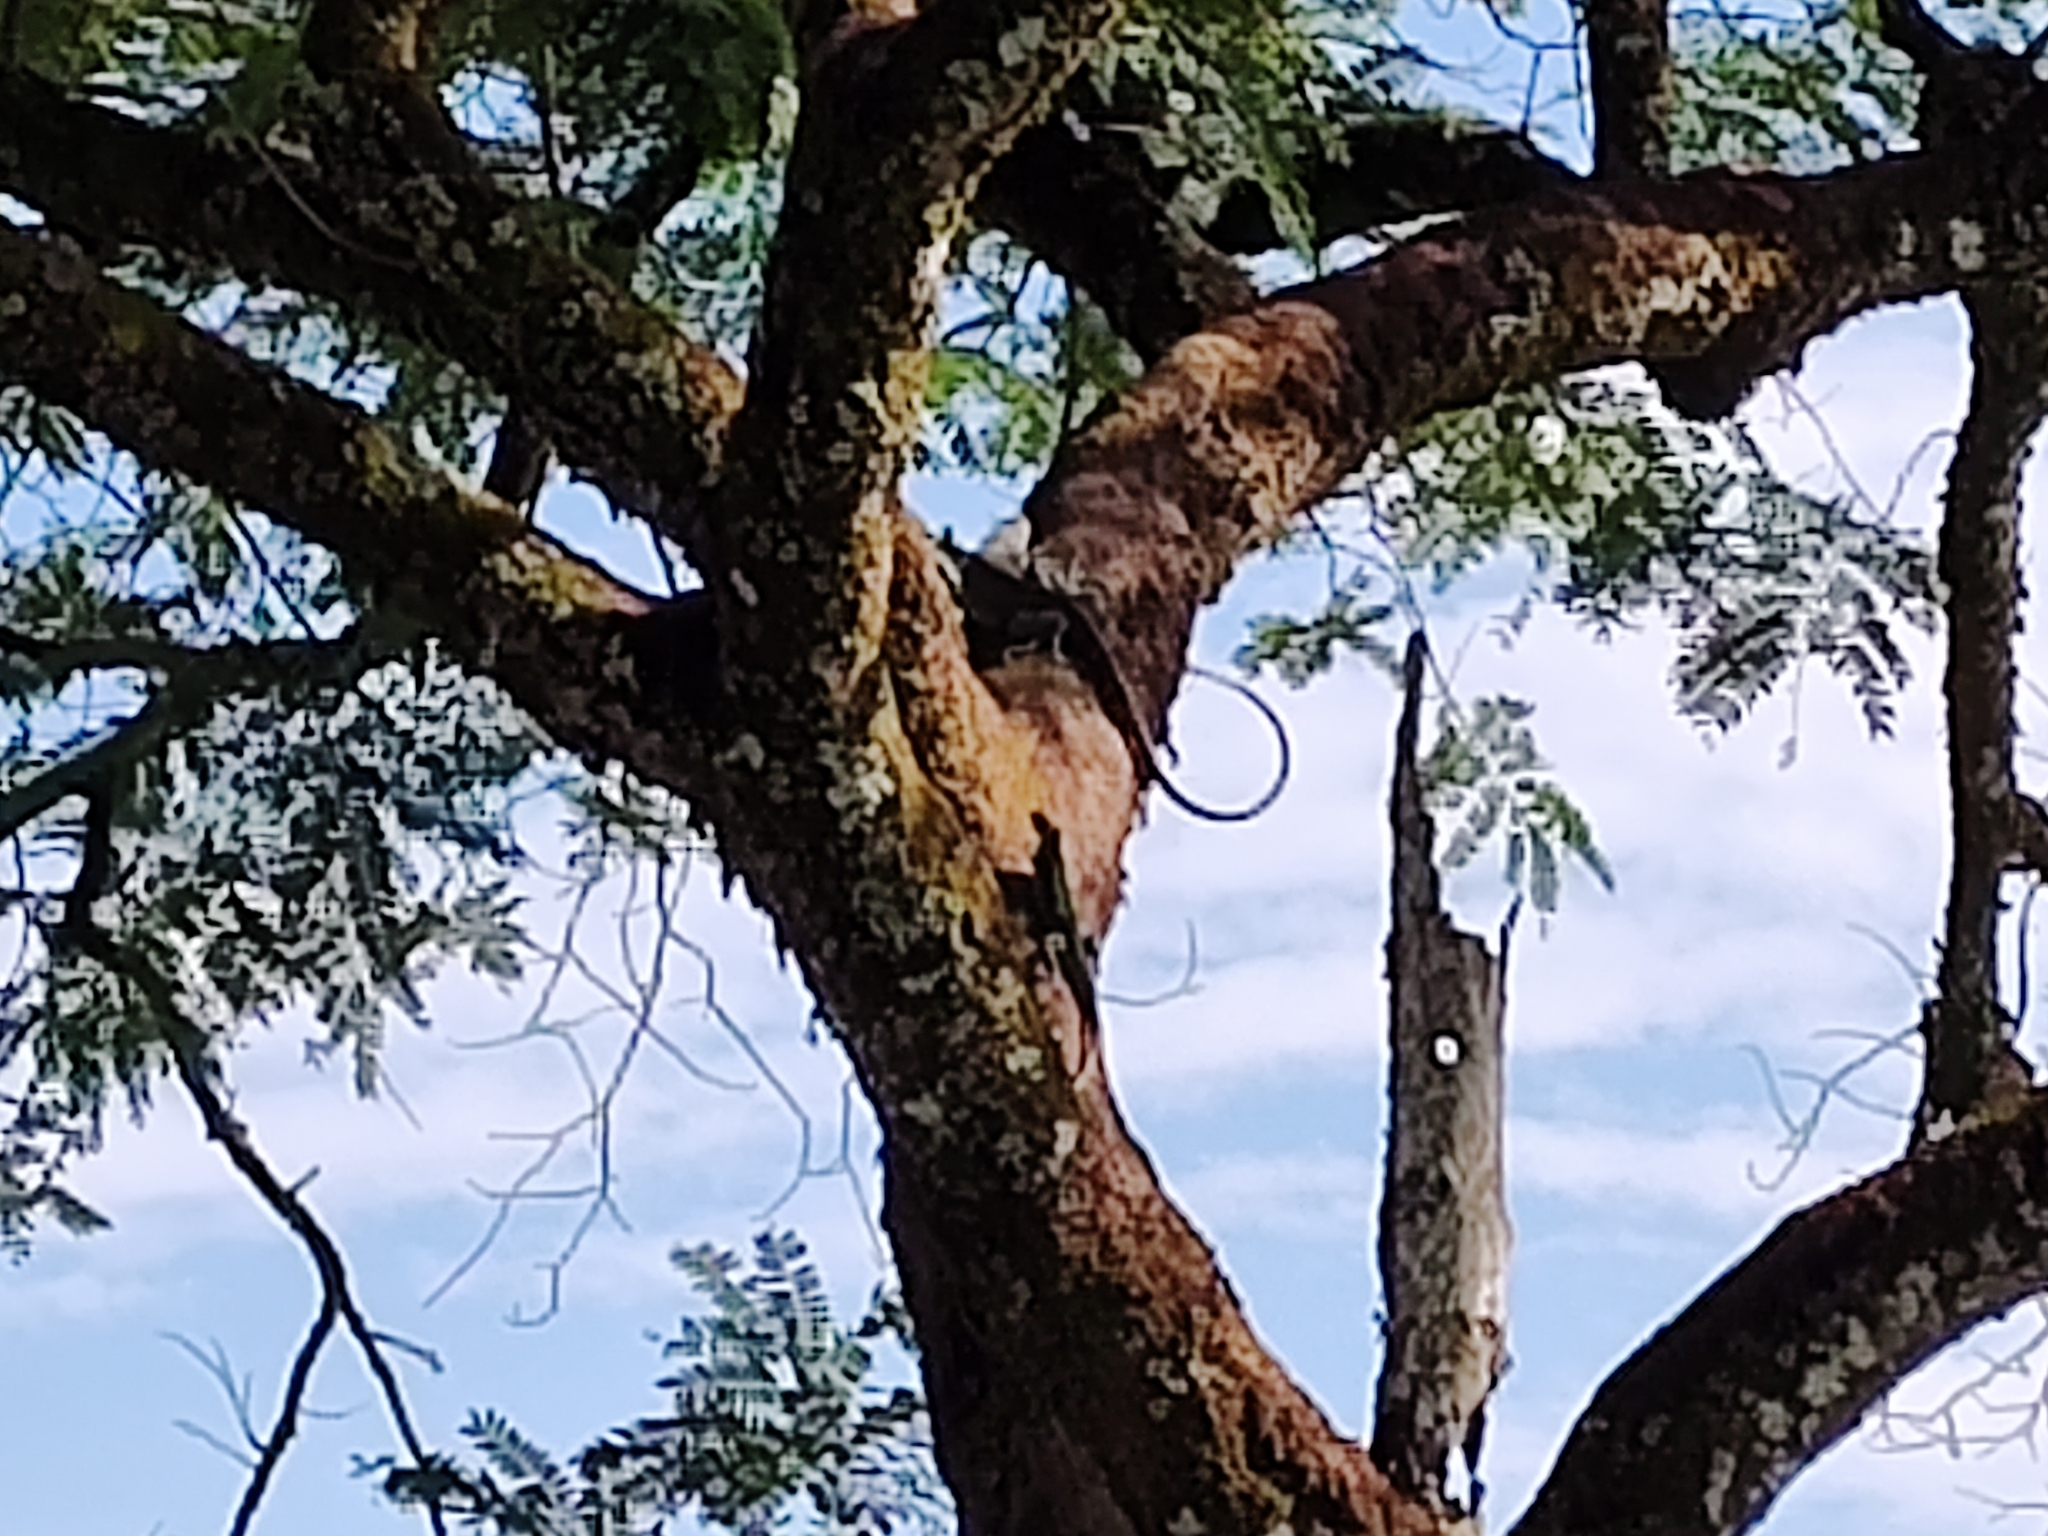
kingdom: Animalia
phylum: Chordata
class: Squamata
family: Iguanidae
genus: Iguana
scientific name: Iguana iguana
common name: Green iguana
